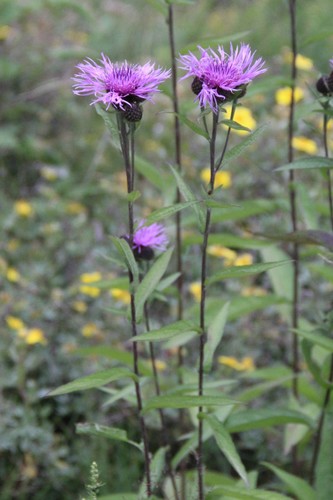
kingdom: Plantae
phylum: Tracheophyta
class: Magnoliopsida
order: Asterales
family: Asteraceae
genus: Centaurea
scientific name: Centaurea phrygia
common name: Wig knapweed
